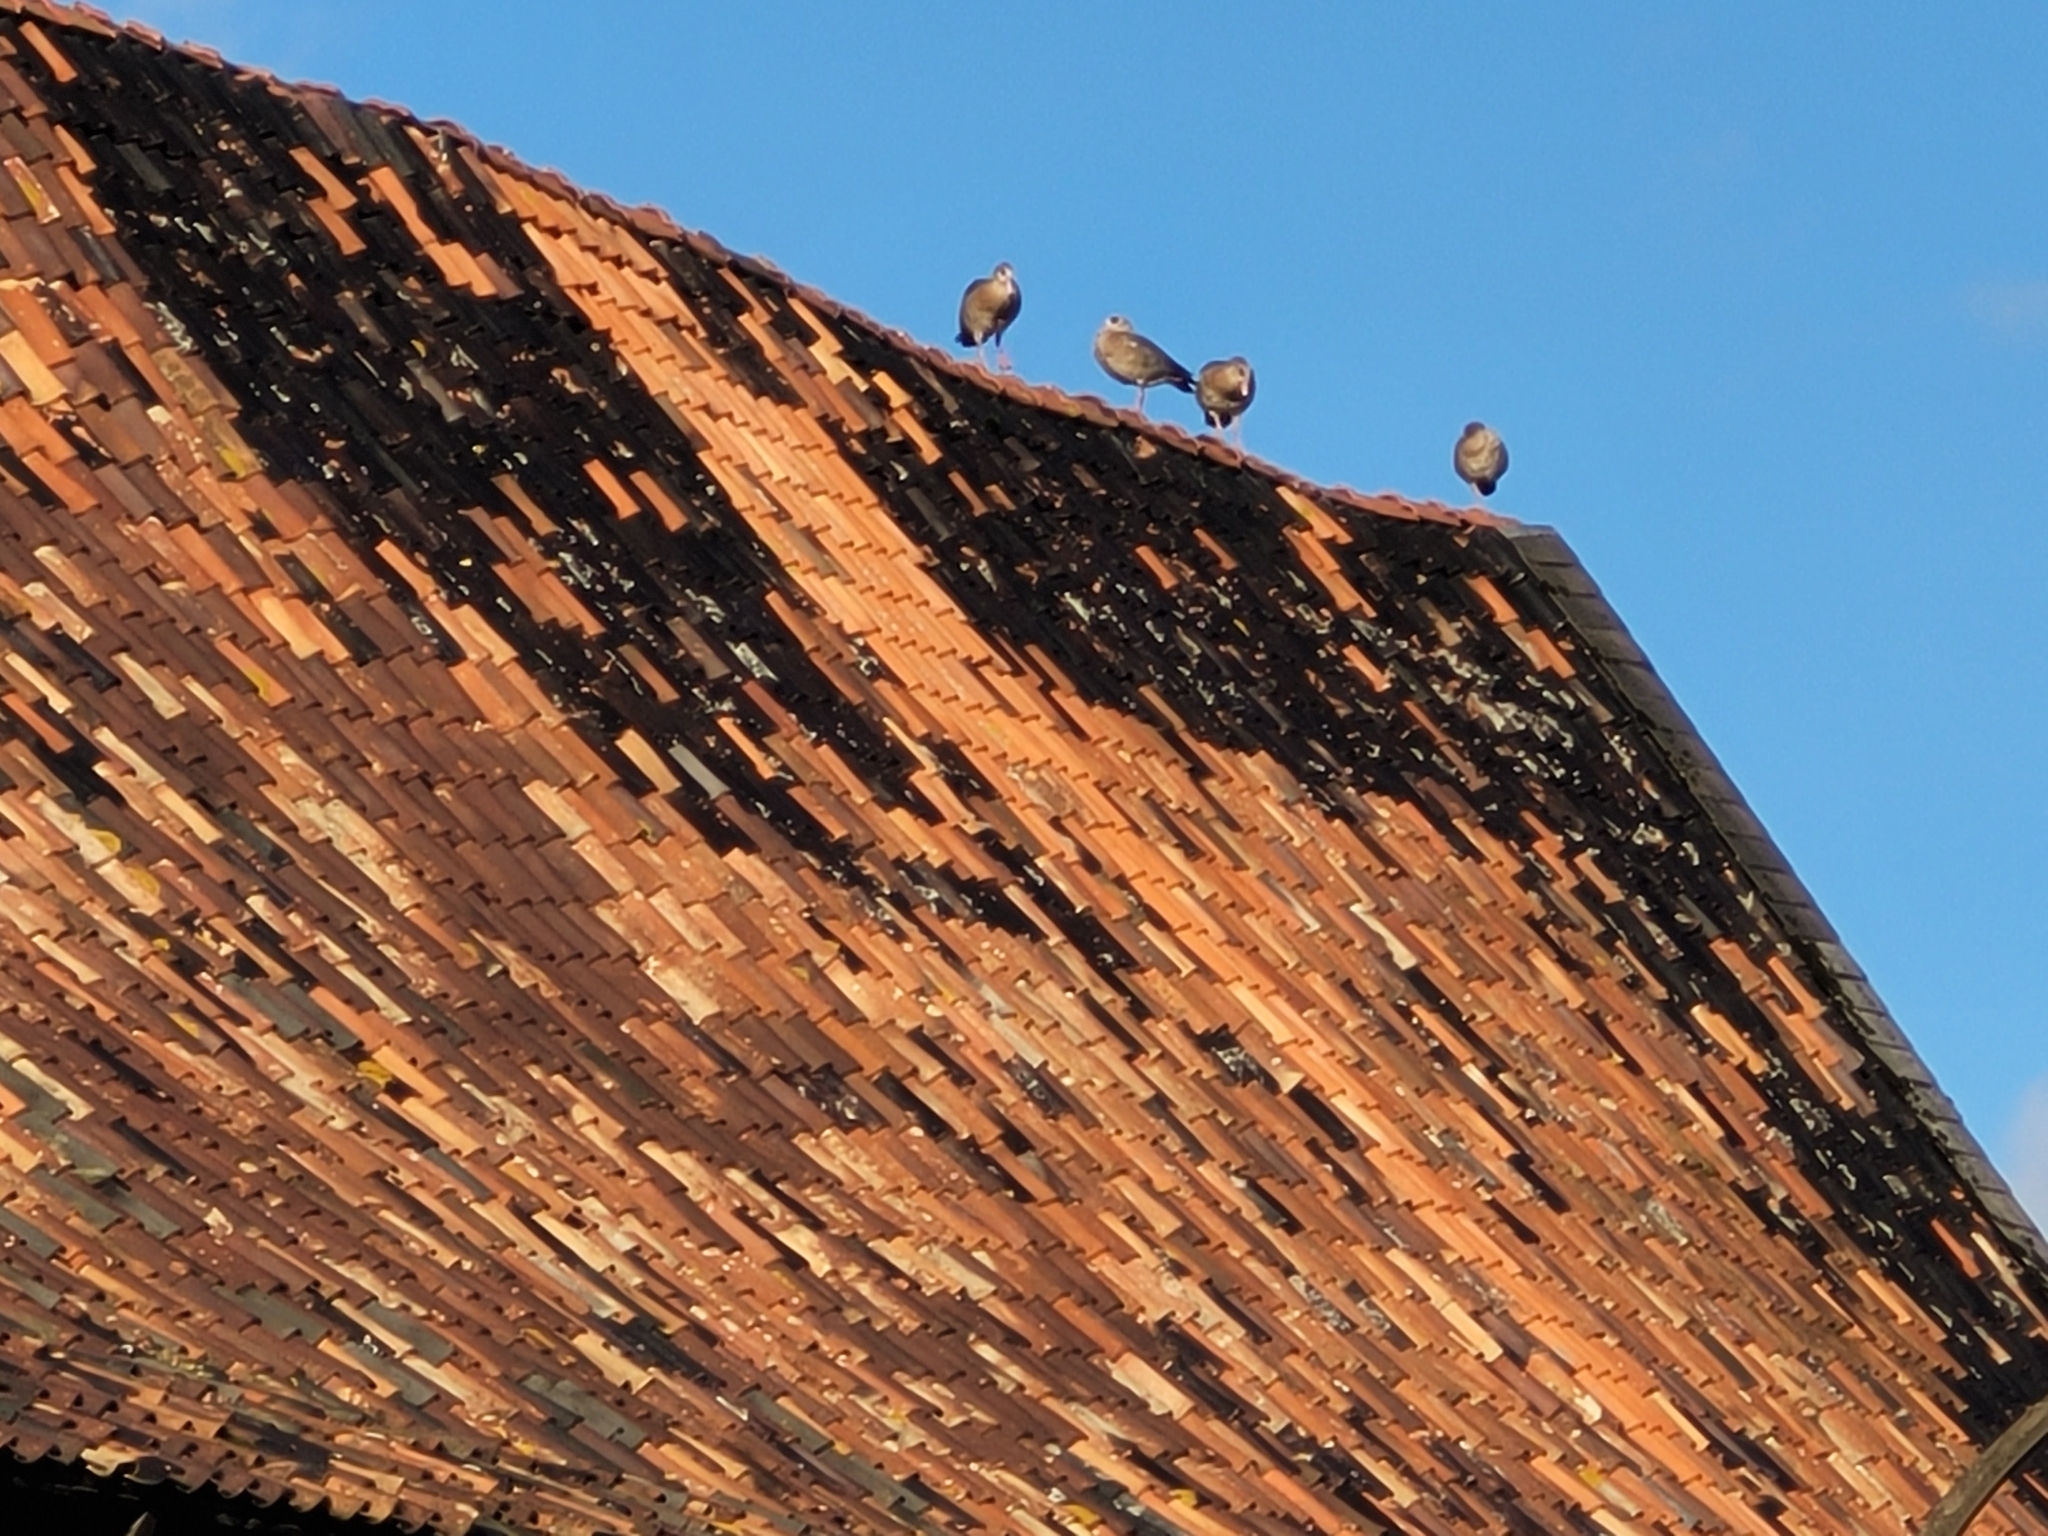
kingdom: Animalia
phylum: Chordata
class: Aves
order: Anseriformes
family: Anatidae
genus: Alopochen
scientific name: Alopochen aegyptiaca
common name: Egyptian goose
